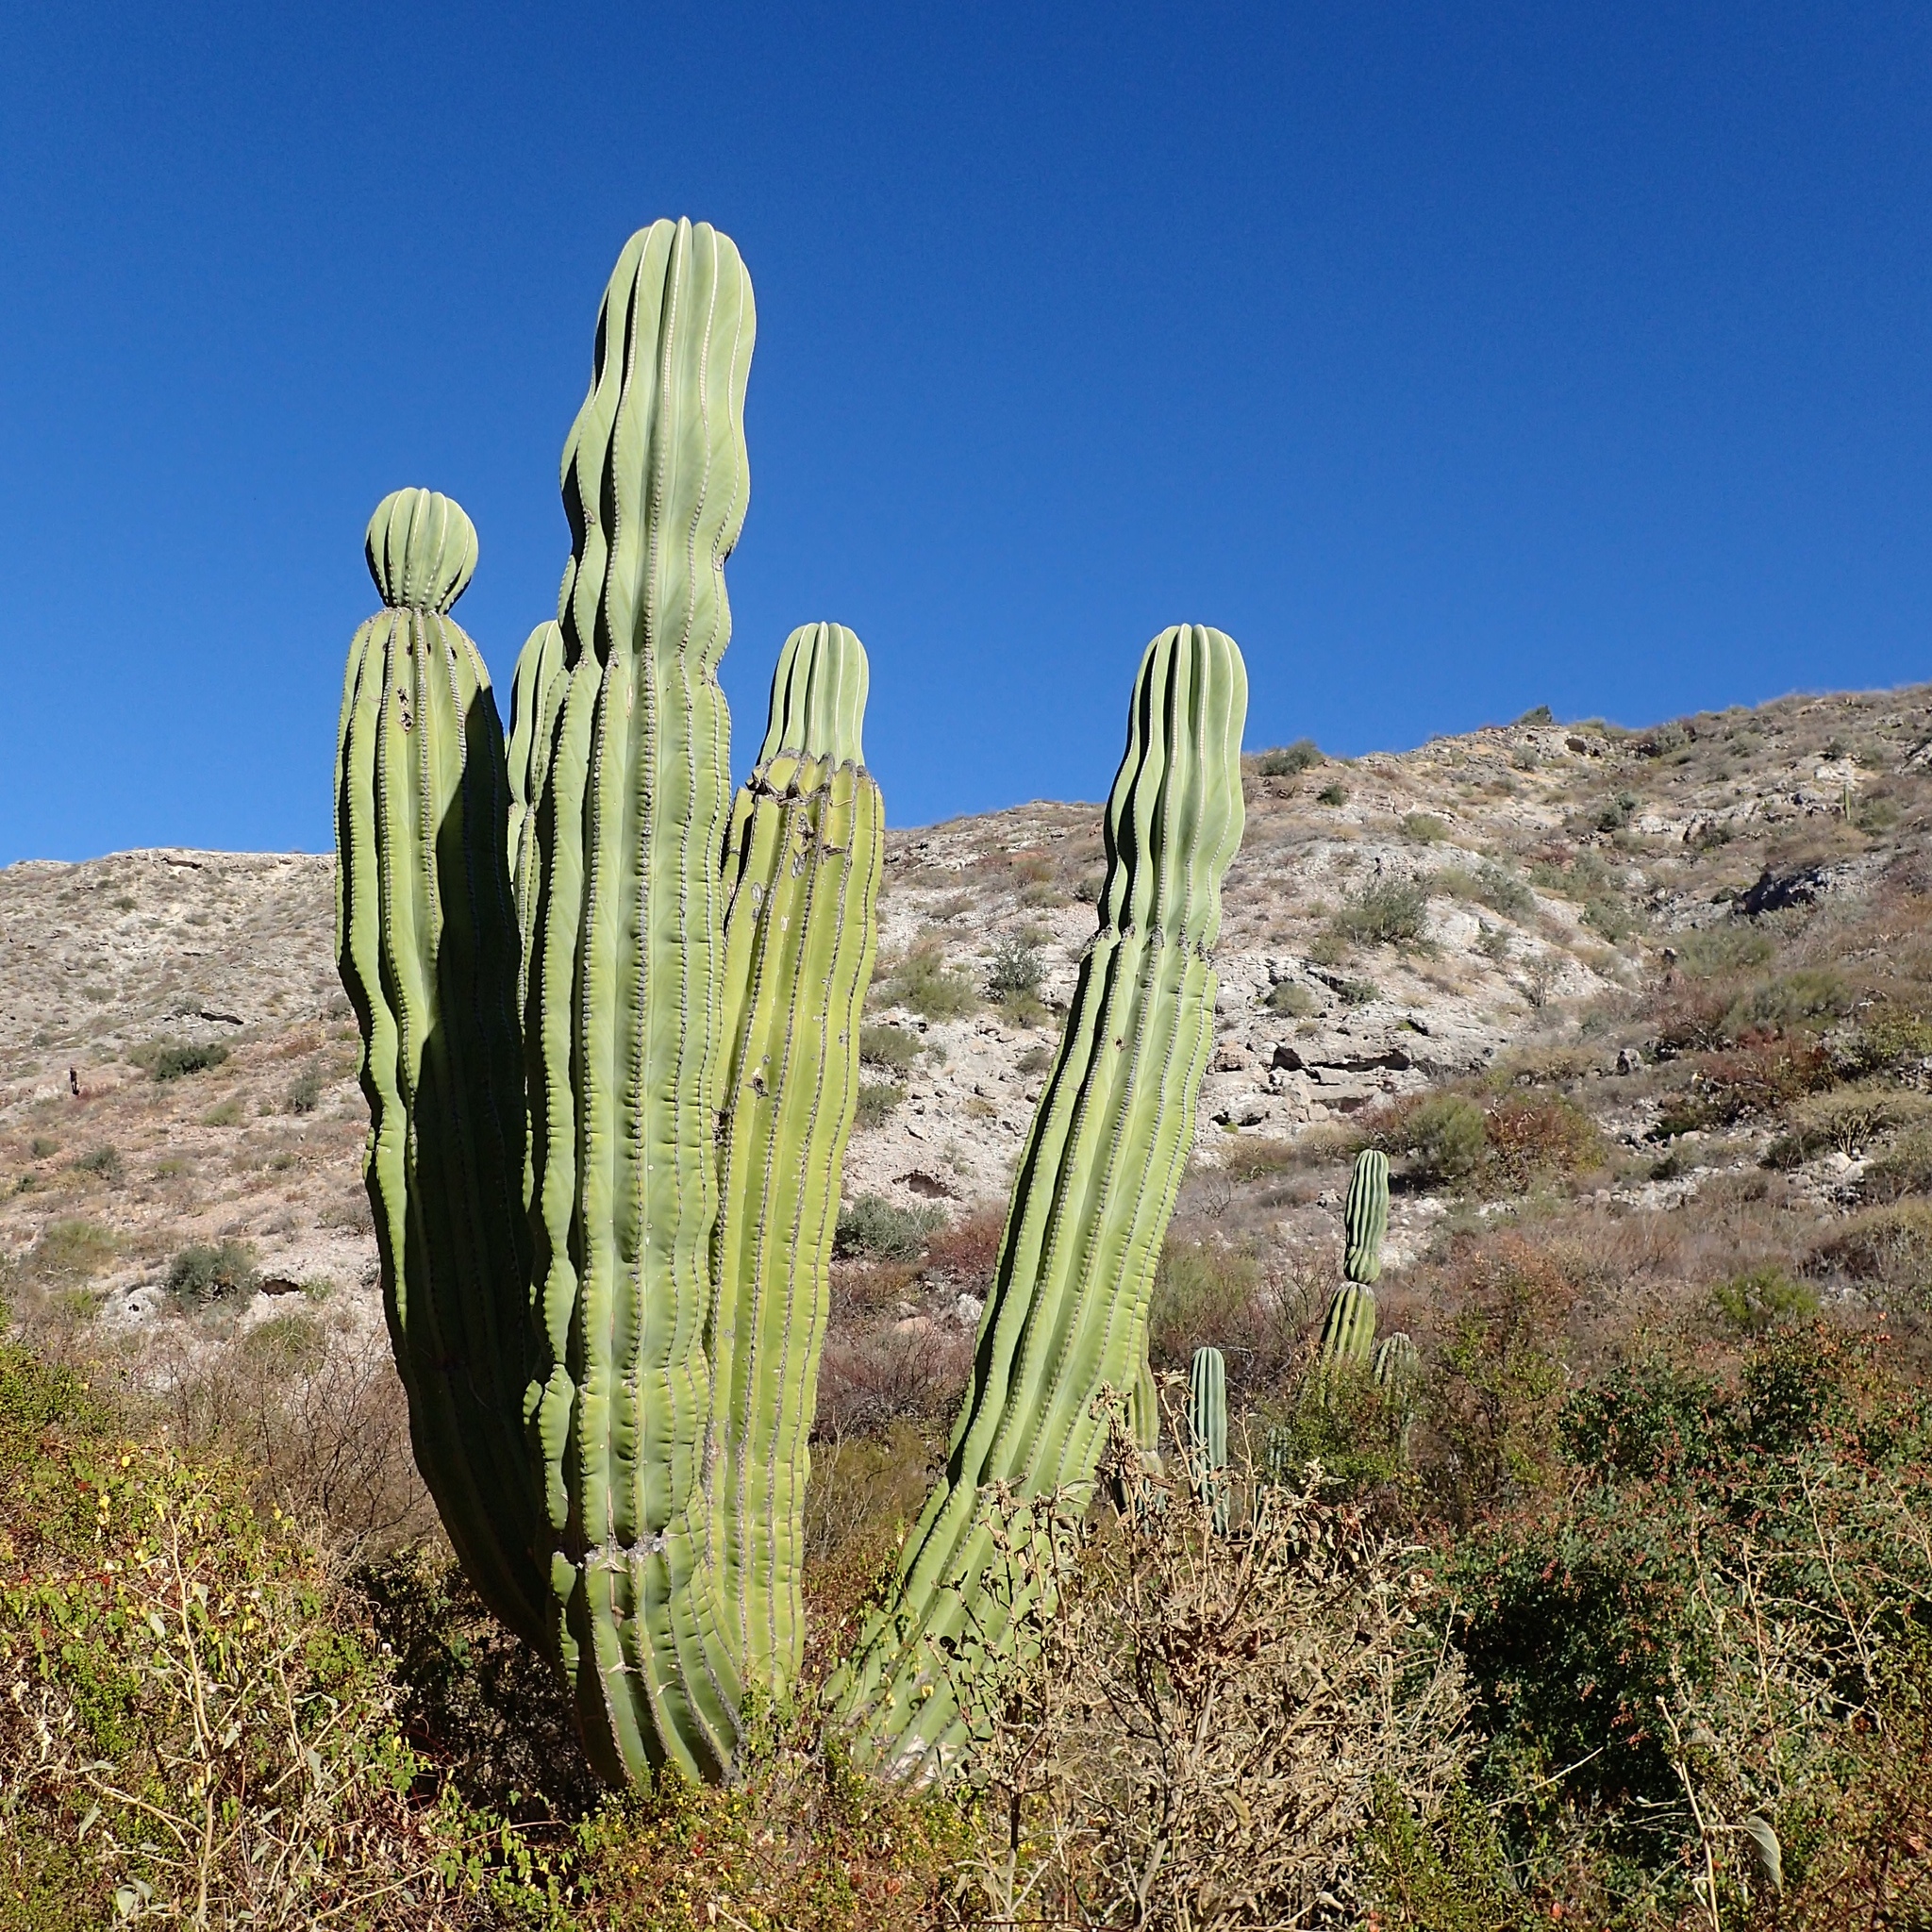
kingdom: Plantae
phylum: Tracheophyta
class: Magnoliopsida
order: Caryophyllales
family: Cactaceae
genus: Pachycereus
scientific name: Pachycereus pringlei
